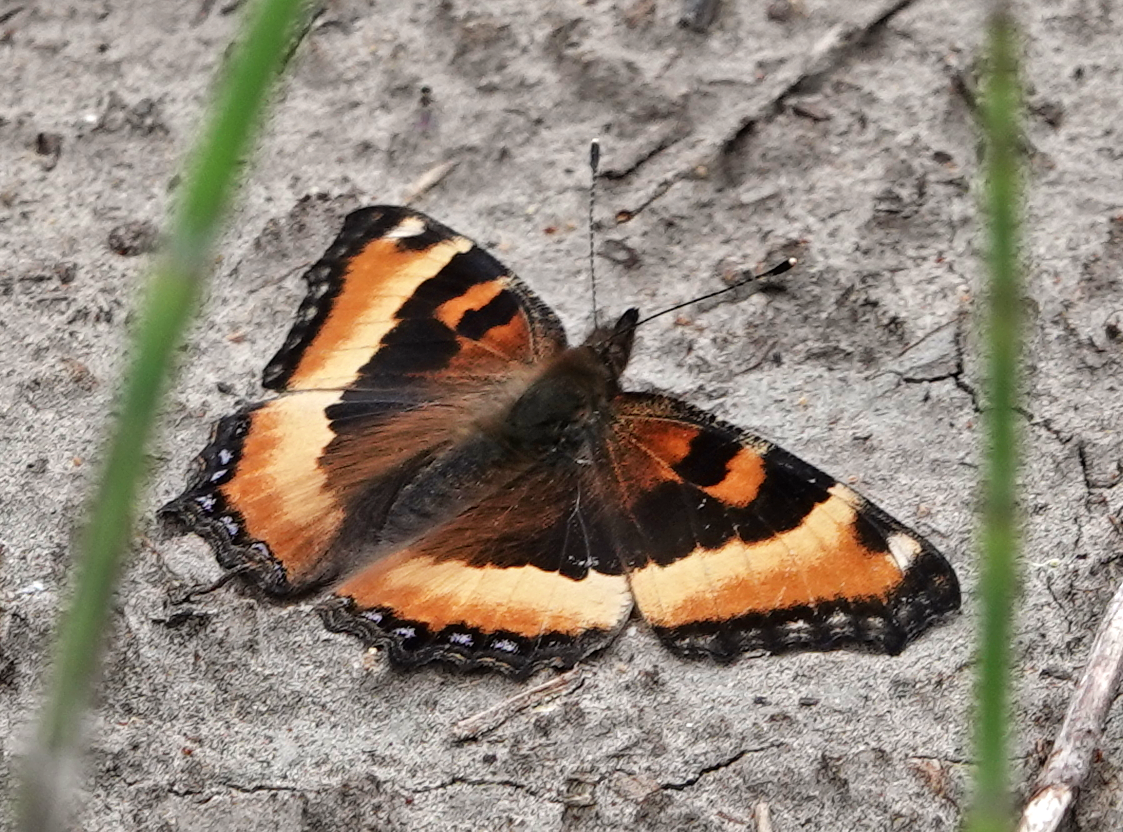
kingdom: Animalia
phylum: Arthropoda
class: Insecta
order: Lepidoptera
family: Nymphalidae
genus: Aglais
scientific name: Aglais milberti
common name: Milbert's tortoiseshell
